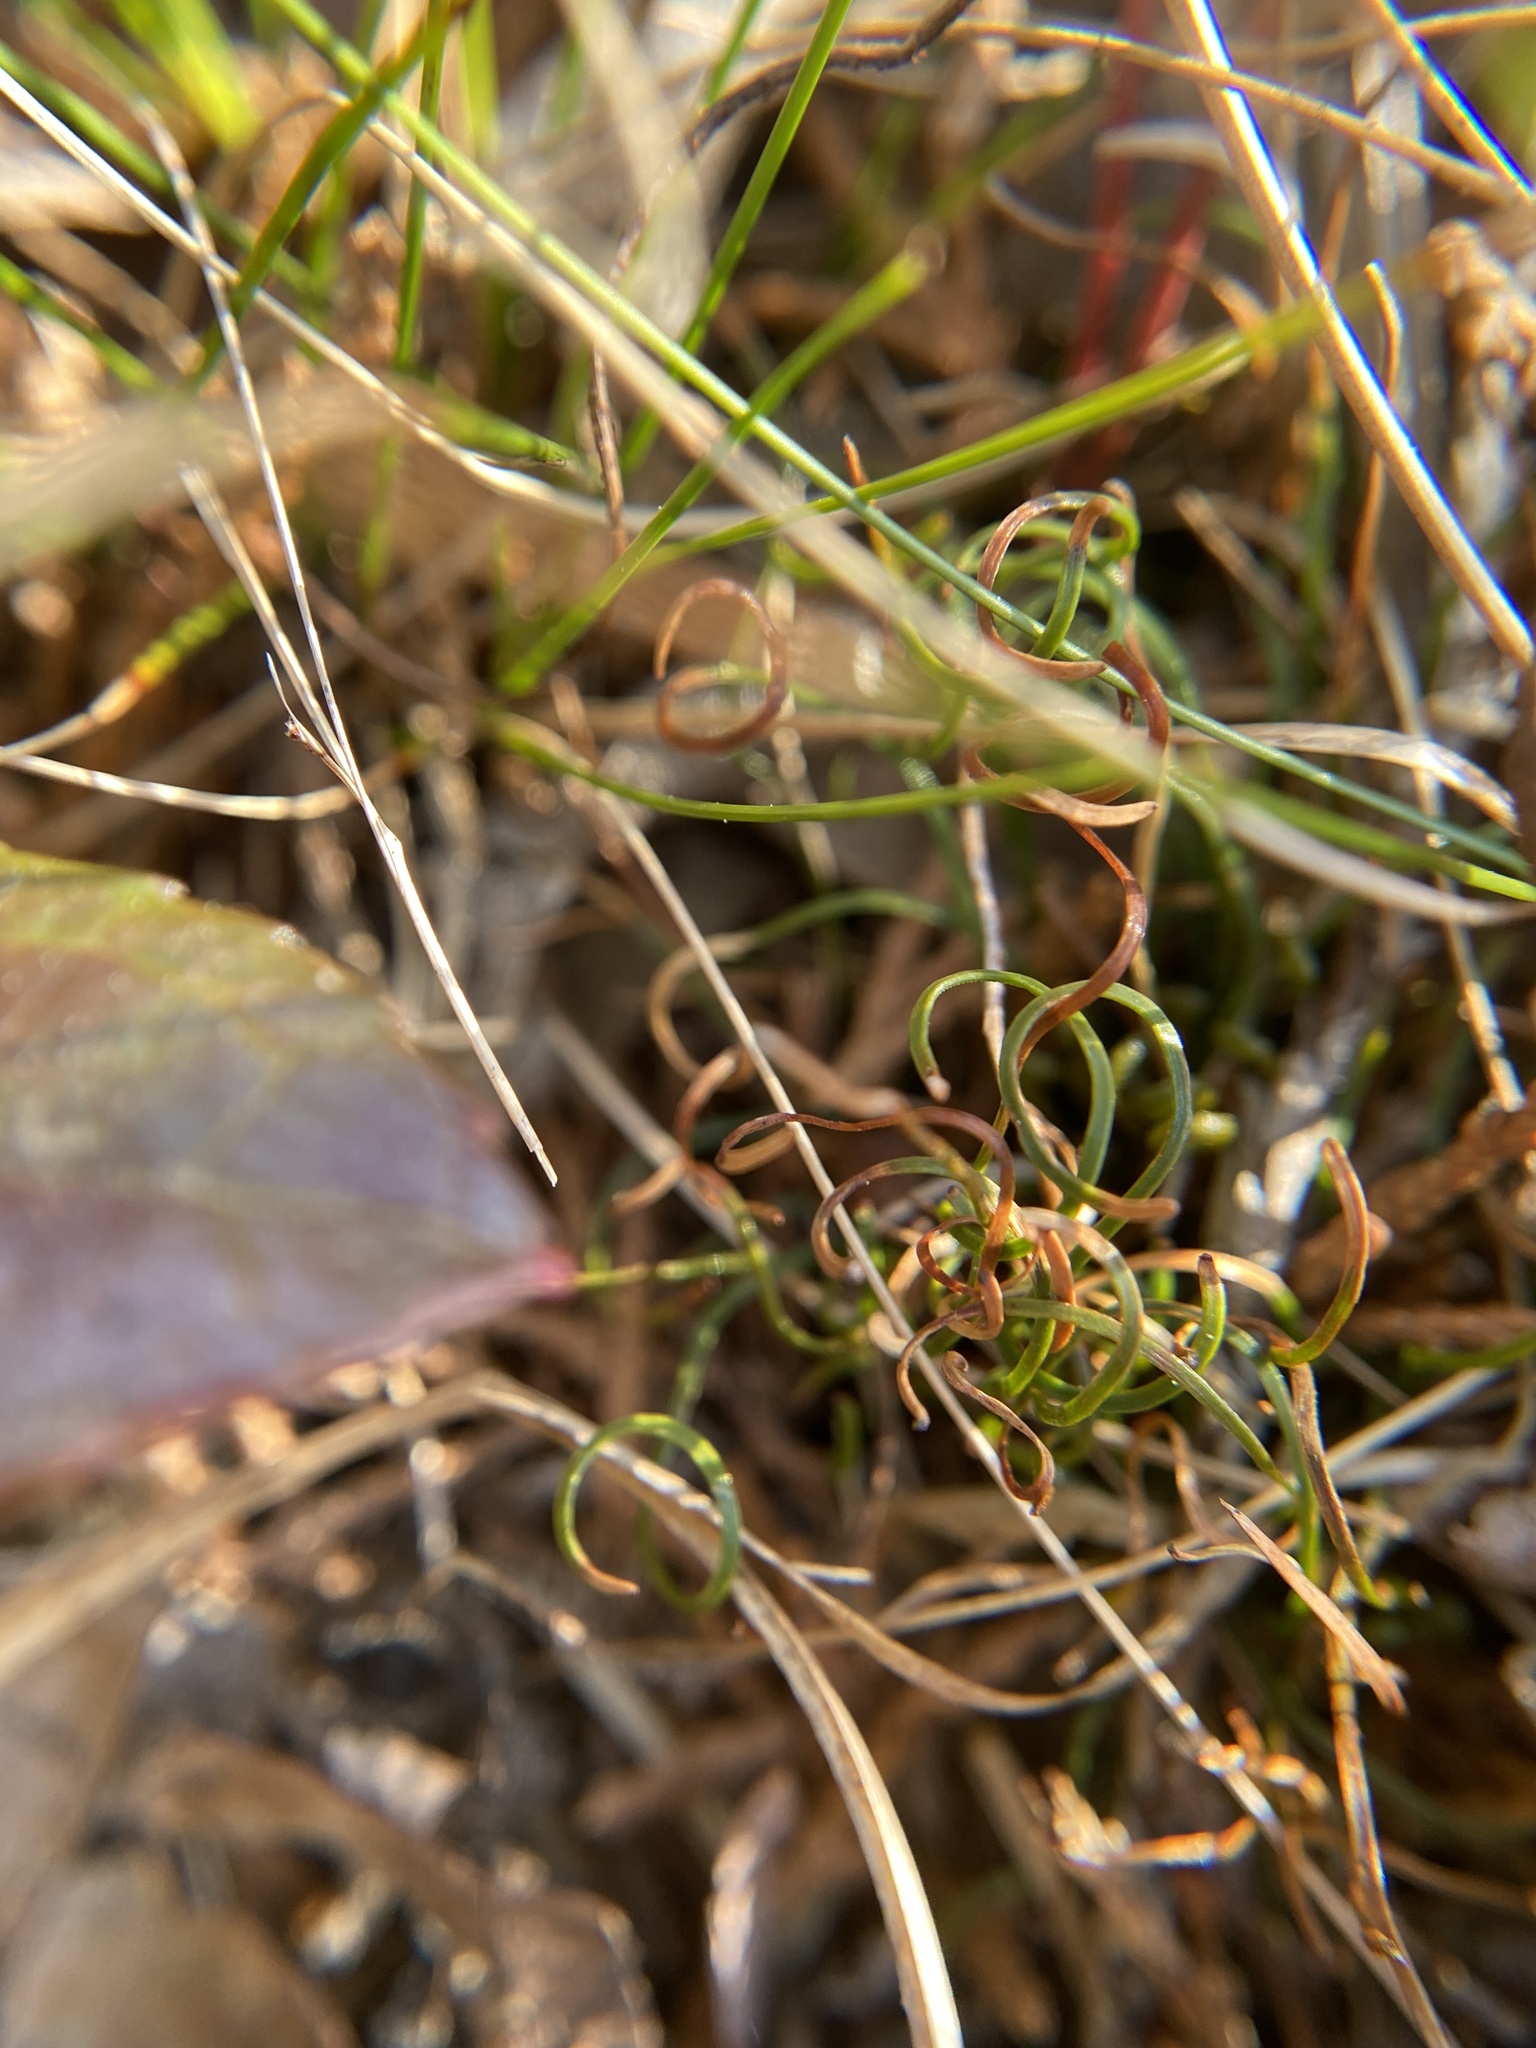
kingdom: Plantae
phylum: Tracheophyta
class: Polypodiopsida
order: Schizaeales
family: Schizaeaceae
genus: Schizaea
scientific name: Schizaea pusilla
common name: Curly-grass fern
